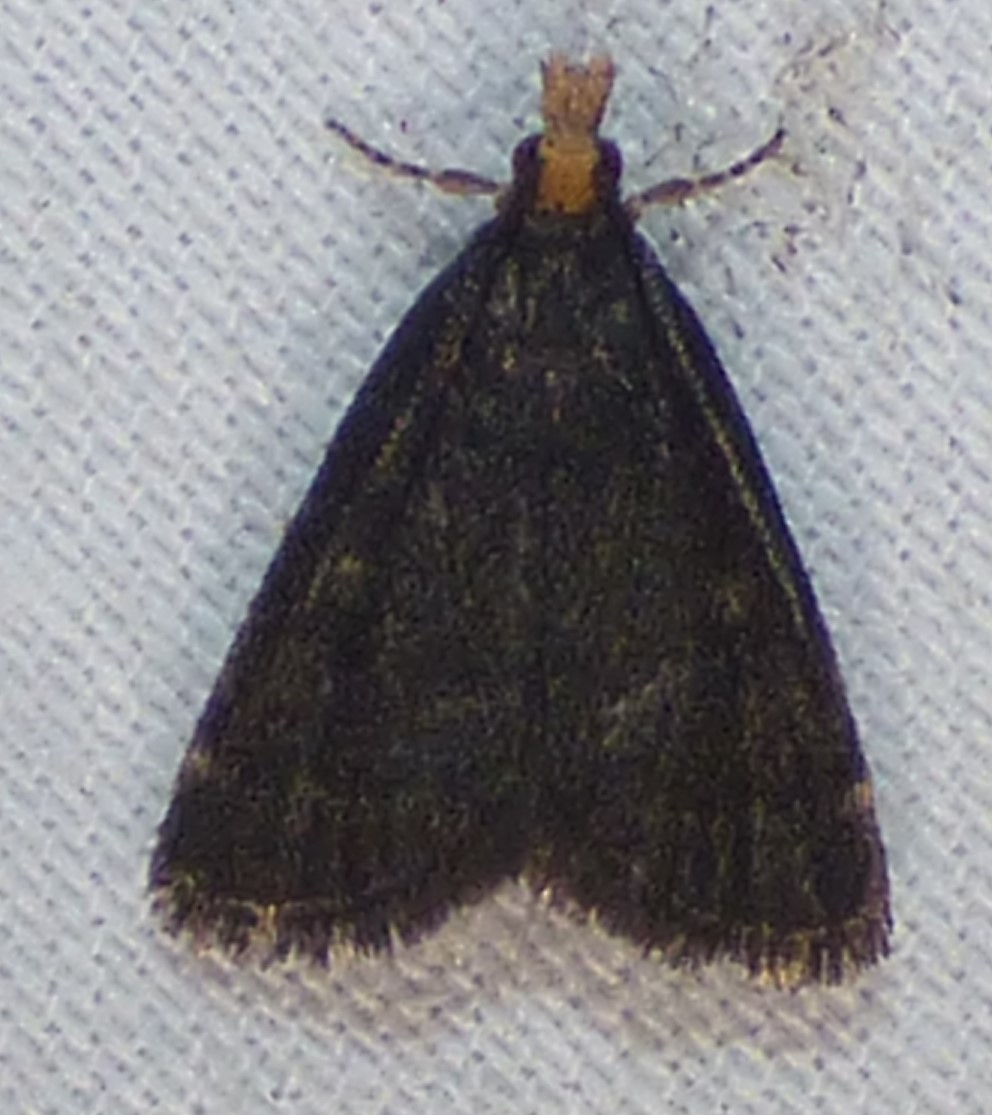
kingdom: Animalia
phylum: Arthropoda
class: Insecta
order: Lepidoptera
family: Crambidae
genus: Pyrausta
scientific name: Pyrausta merrickalis
